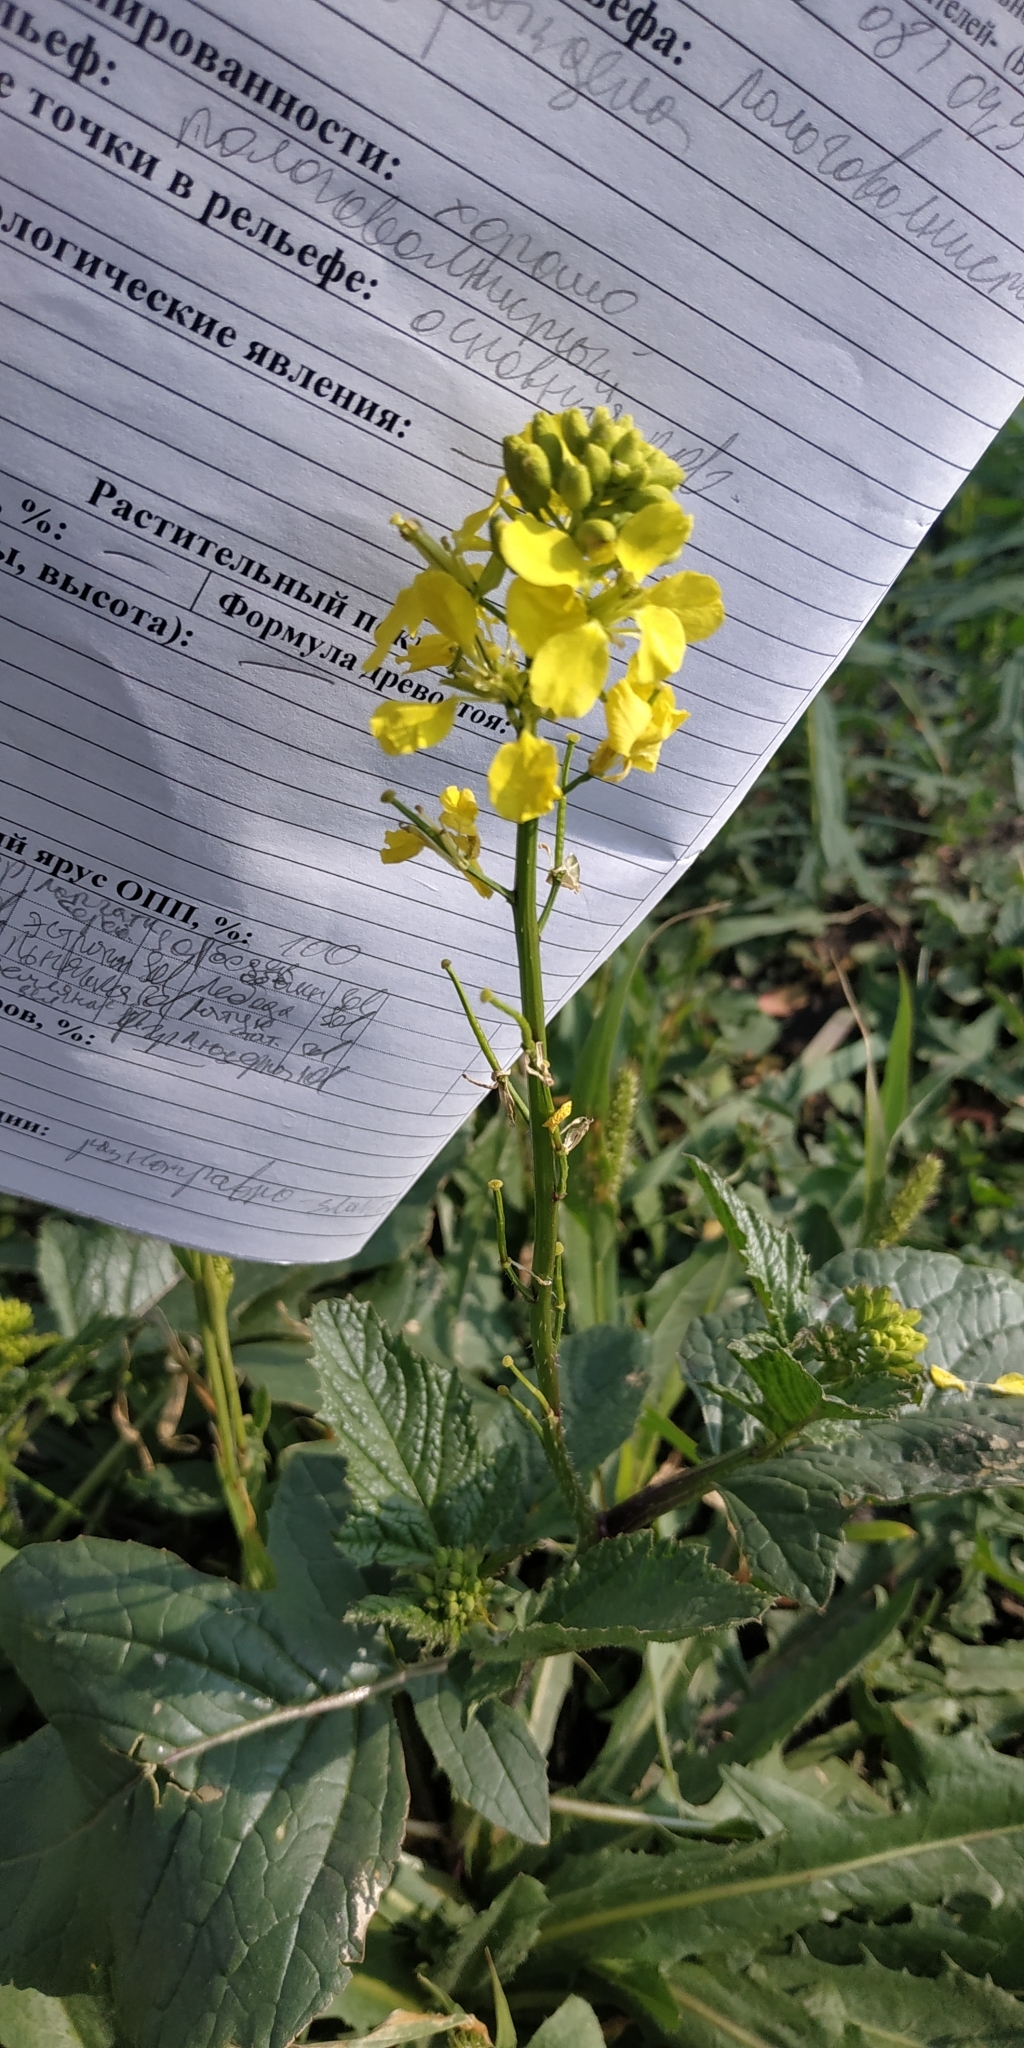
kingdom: Plantae
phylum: Tracheophyta
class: Magnoliopsida
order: Brassicales
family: Brassicaceae
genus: Sinapis
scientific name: Sinapis arvensis
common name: Charlock
